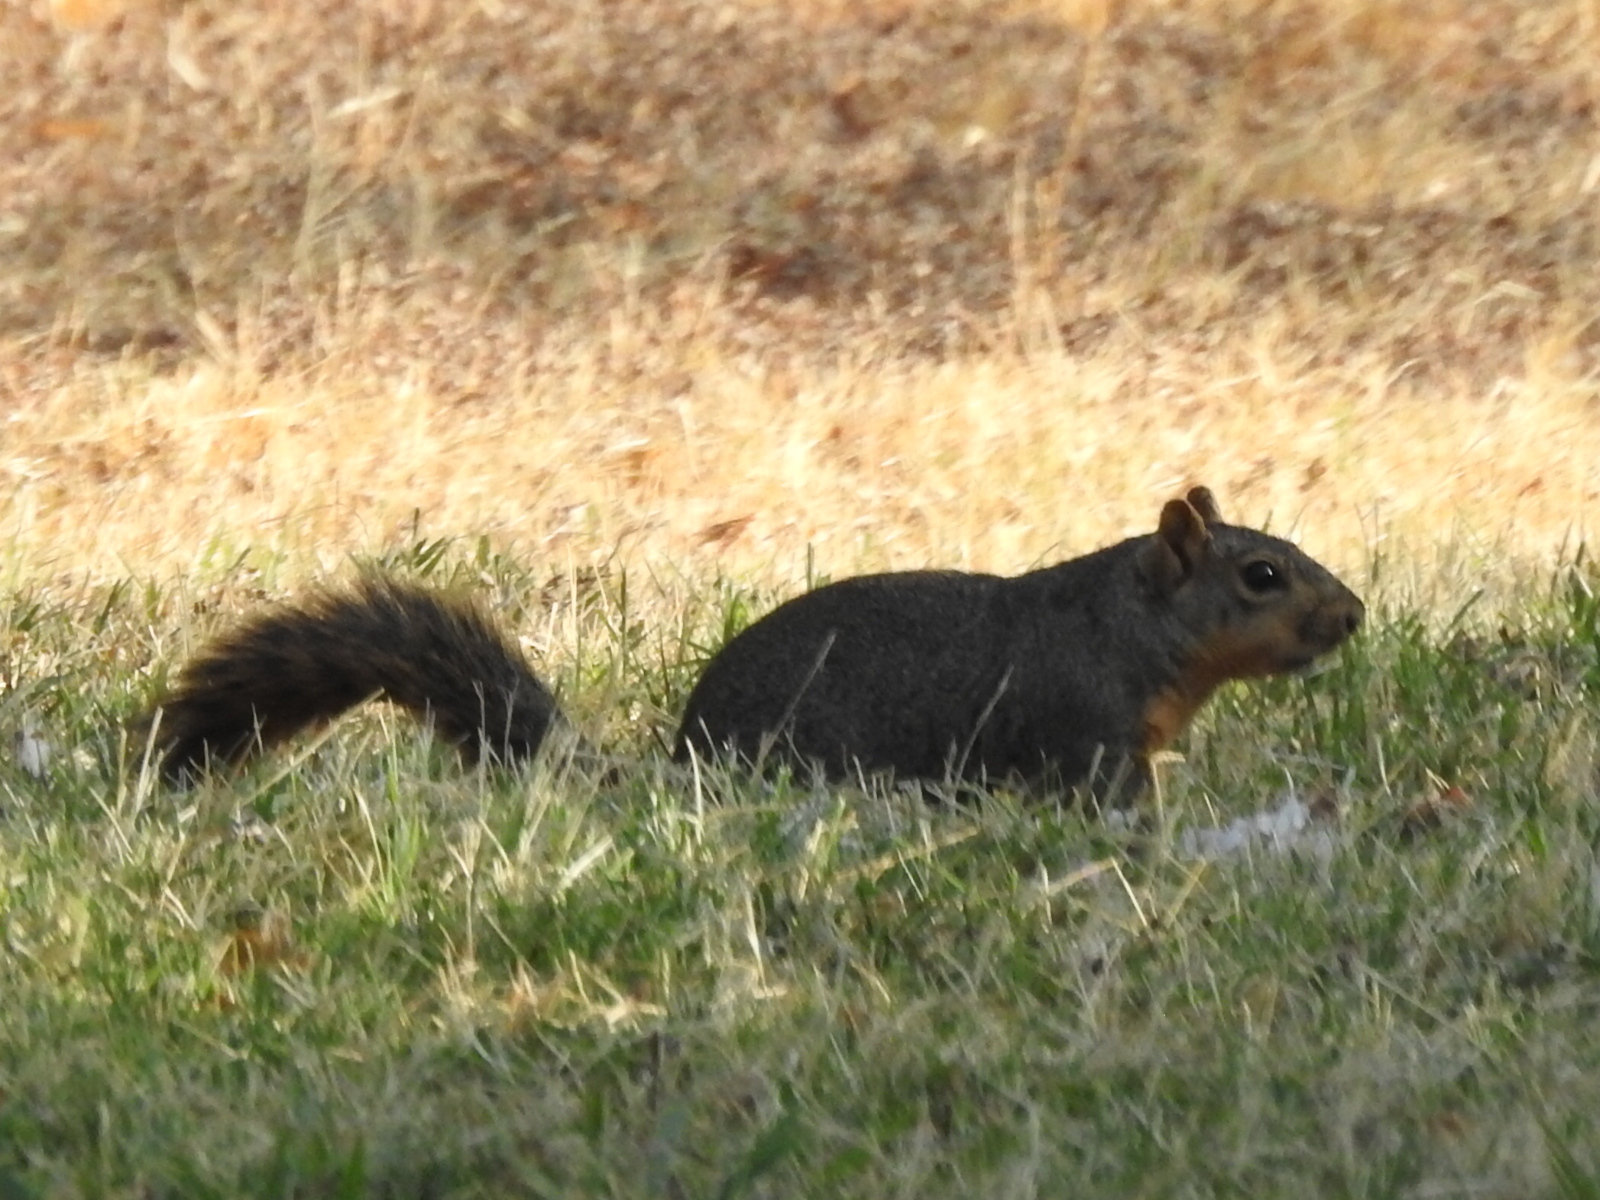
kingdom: Animalia
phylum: Chordata
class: Mammalia
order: Rodentia
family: Sciuridae
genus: Sciurus
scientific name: Sciurus niger
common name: Fox squirrel
